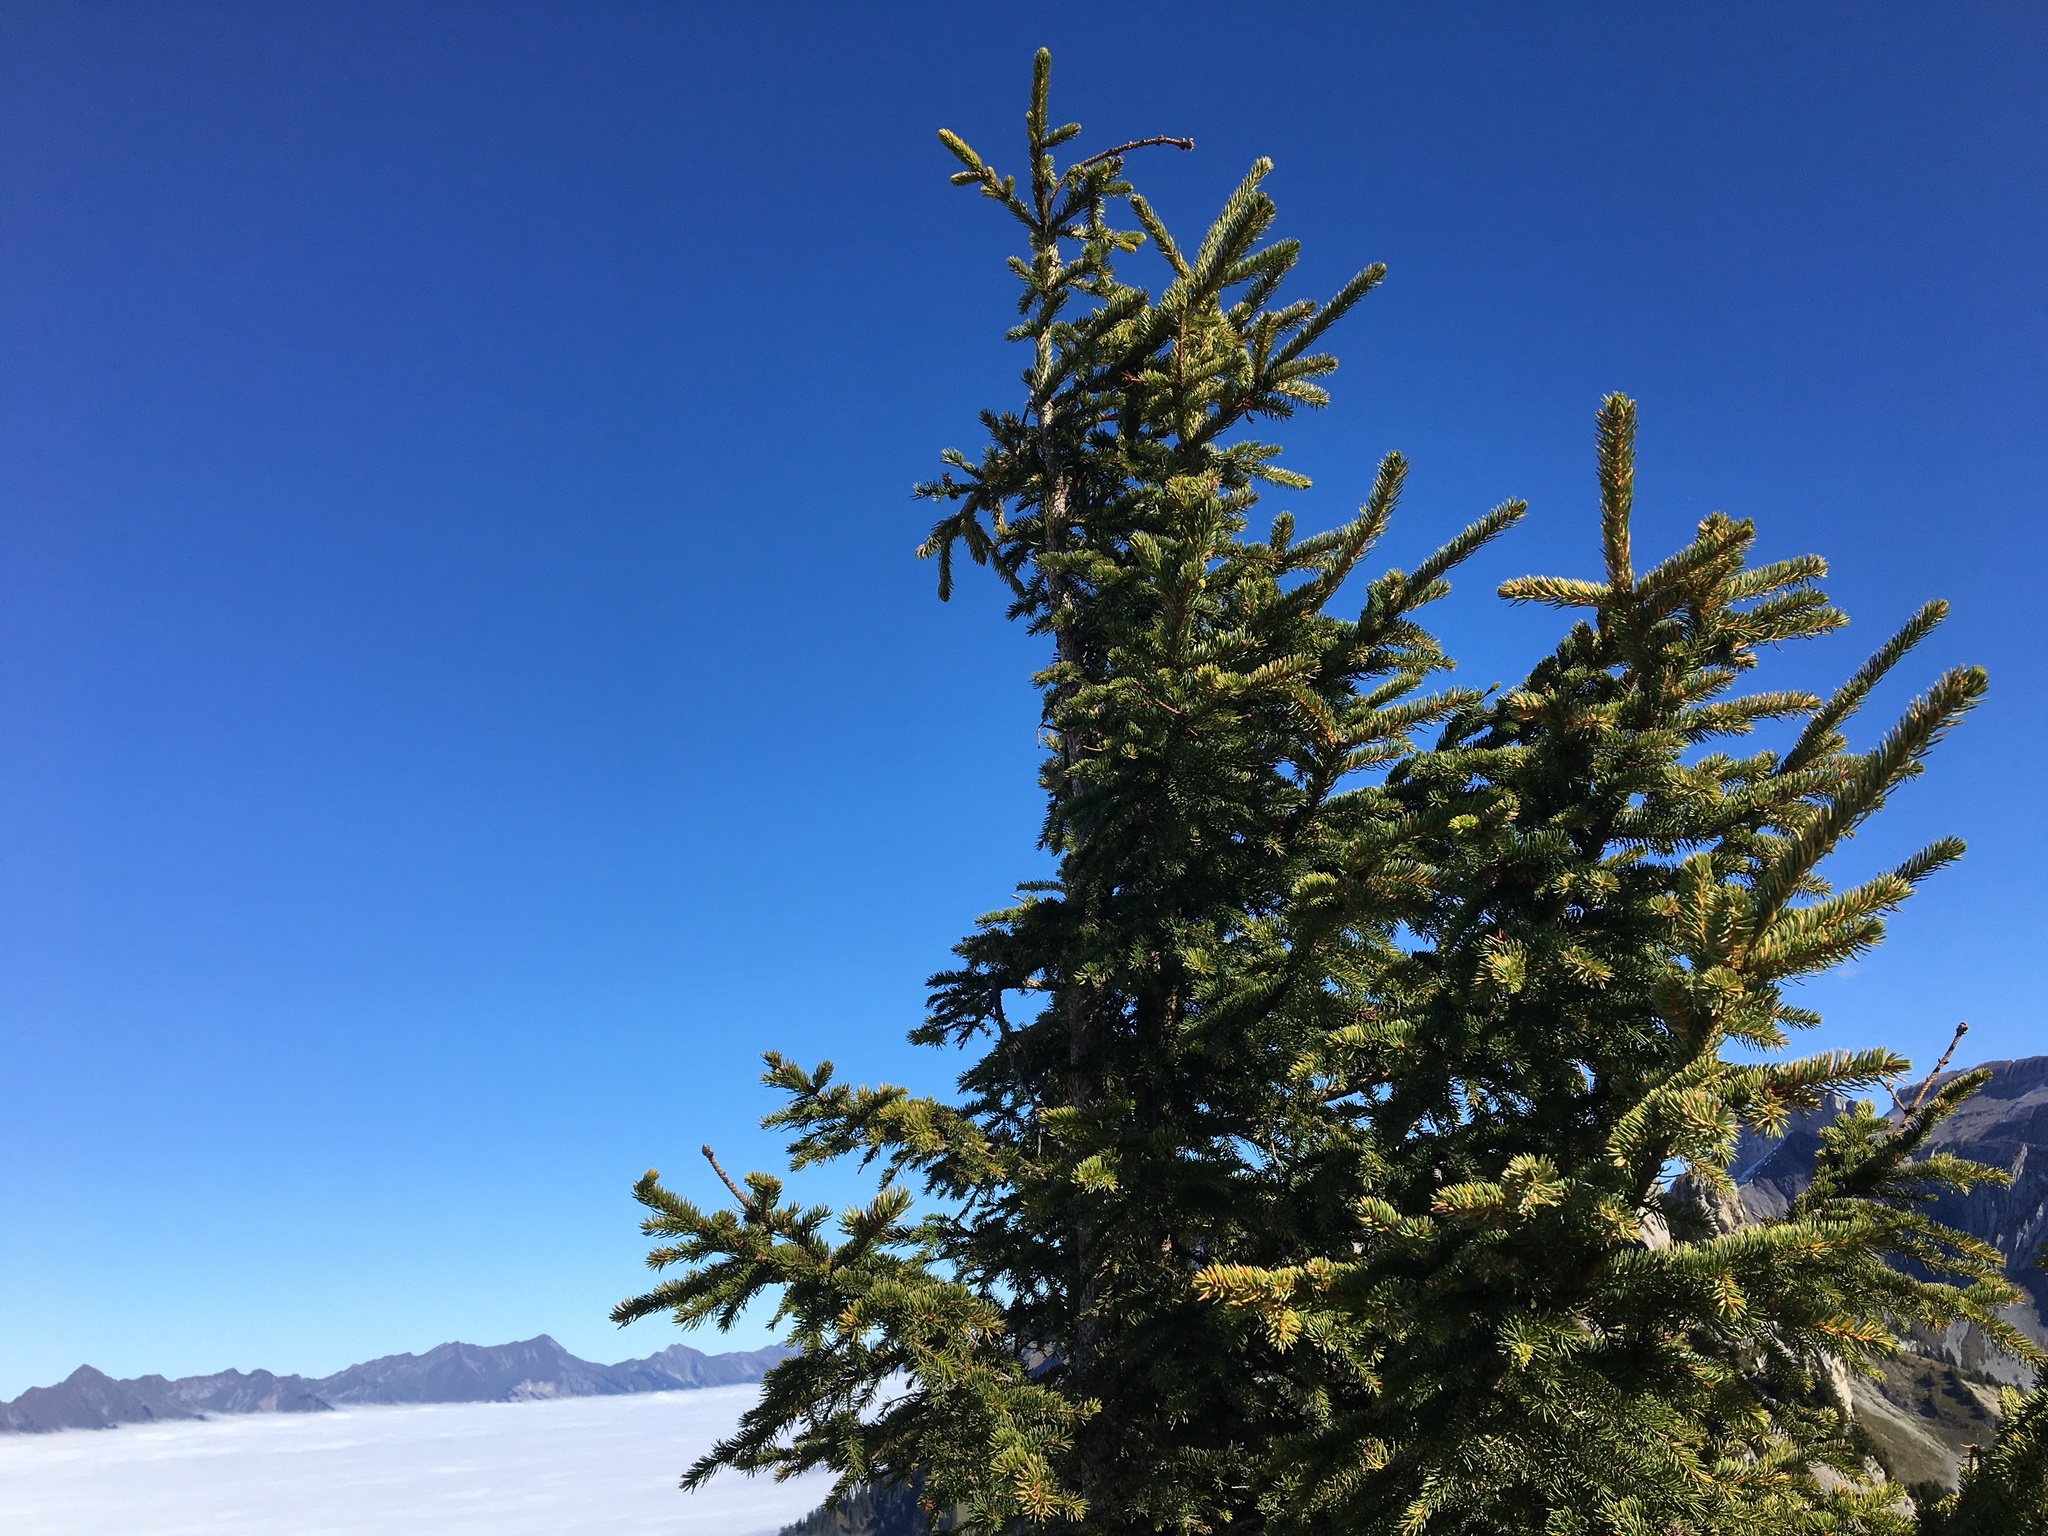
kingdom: Plantae
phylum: Tracheophyta
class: Pinopsida
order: Pinales
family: Pinaceae
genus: Picea
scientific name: Picea abies
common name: Norway spruce
